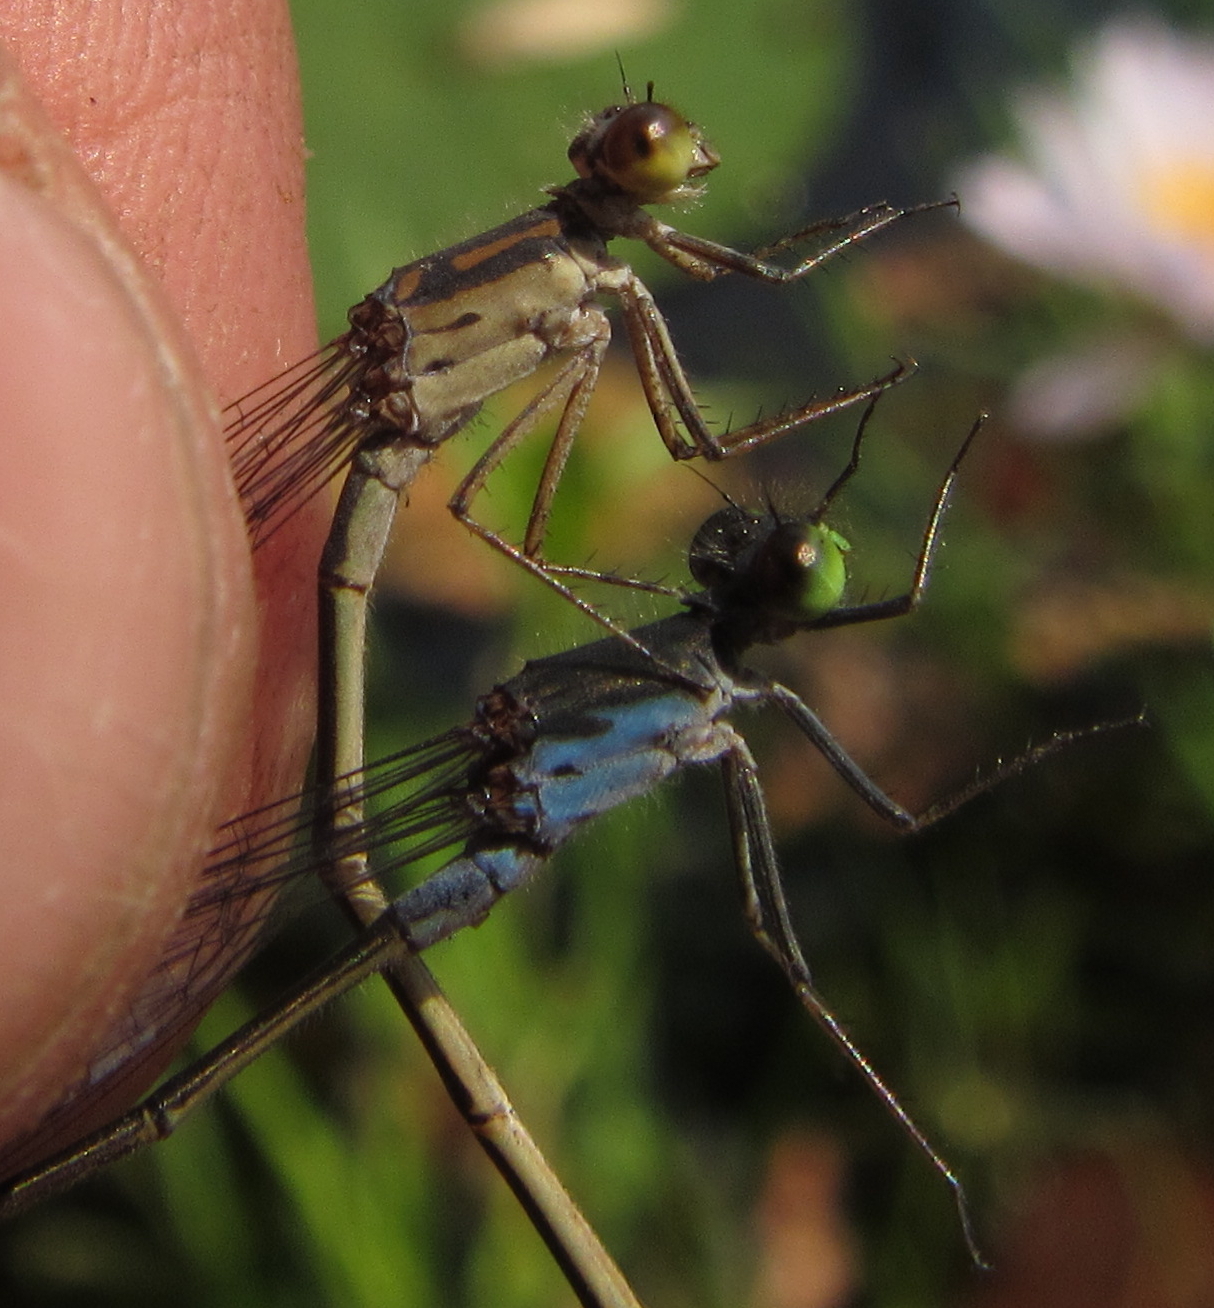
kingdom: Animalia
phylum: Arthropoda
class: Insecta
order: Odonata
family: Coenagrionidae
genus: Pseudagrion
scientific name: Pseudagrion deningi
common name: Dening's sprite
